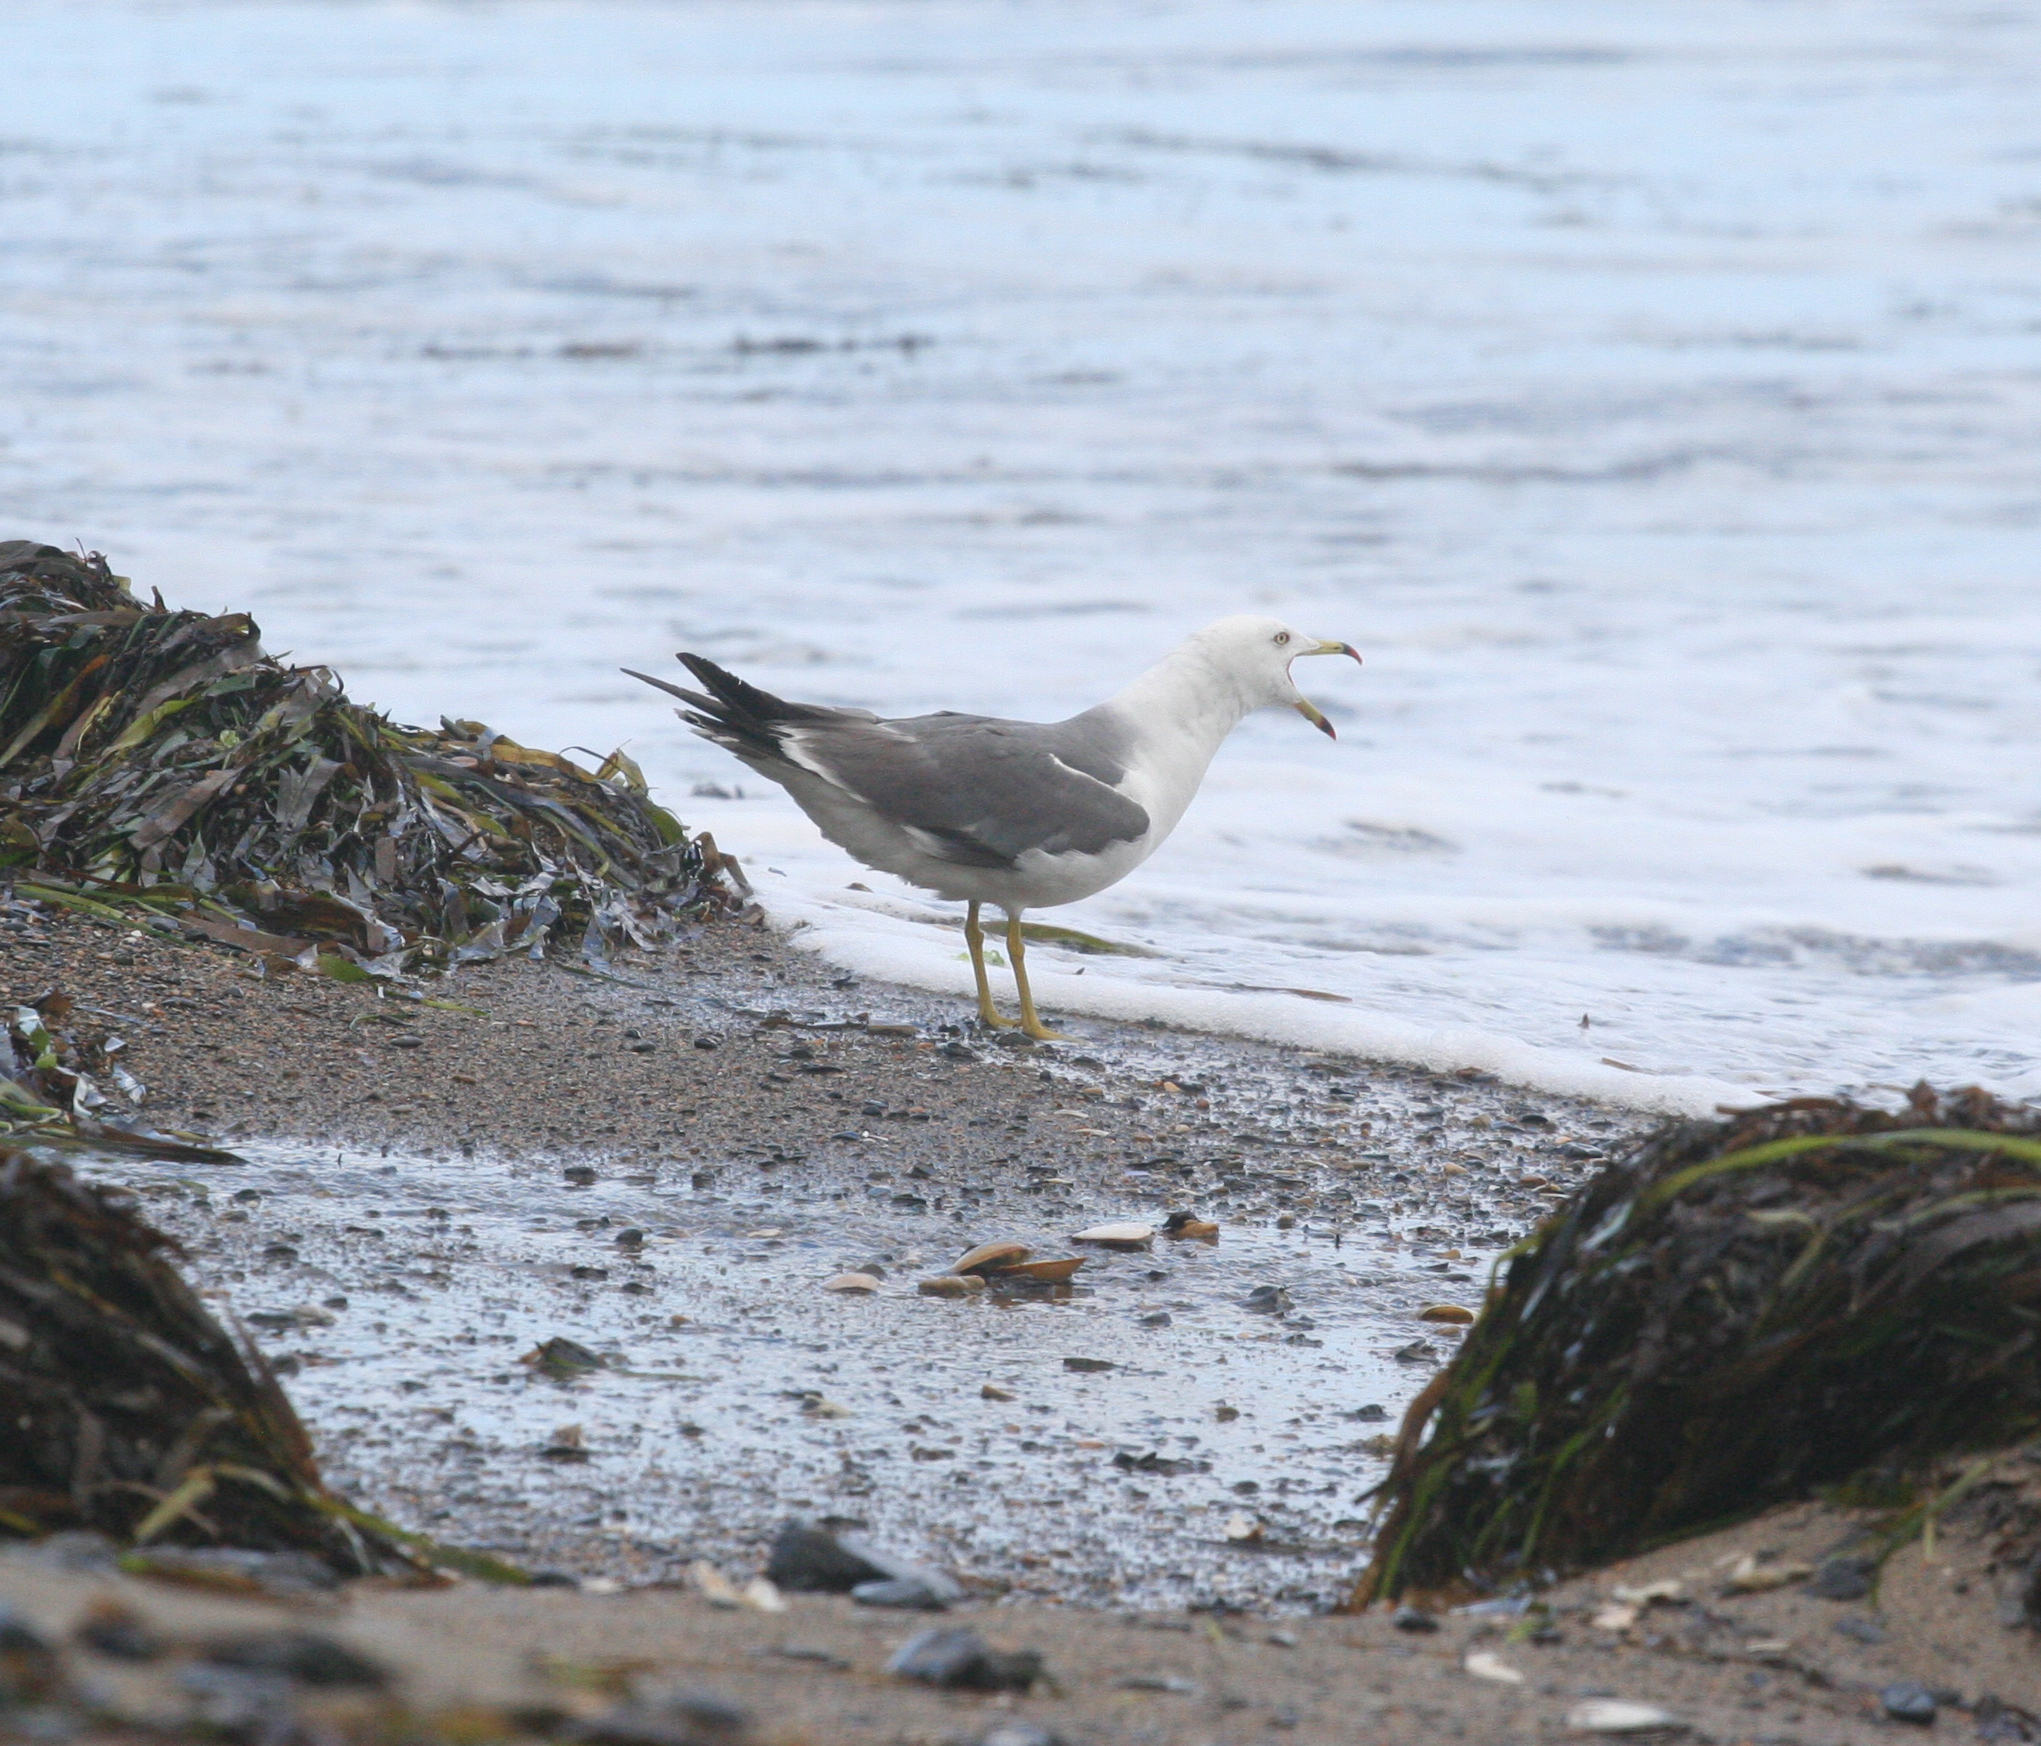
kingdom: Animalia
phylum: Chordata
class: Aves
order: Charadriiformes
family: Laridae
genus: Larus
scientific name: Larus crassirostris
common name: Black-tailed gull
